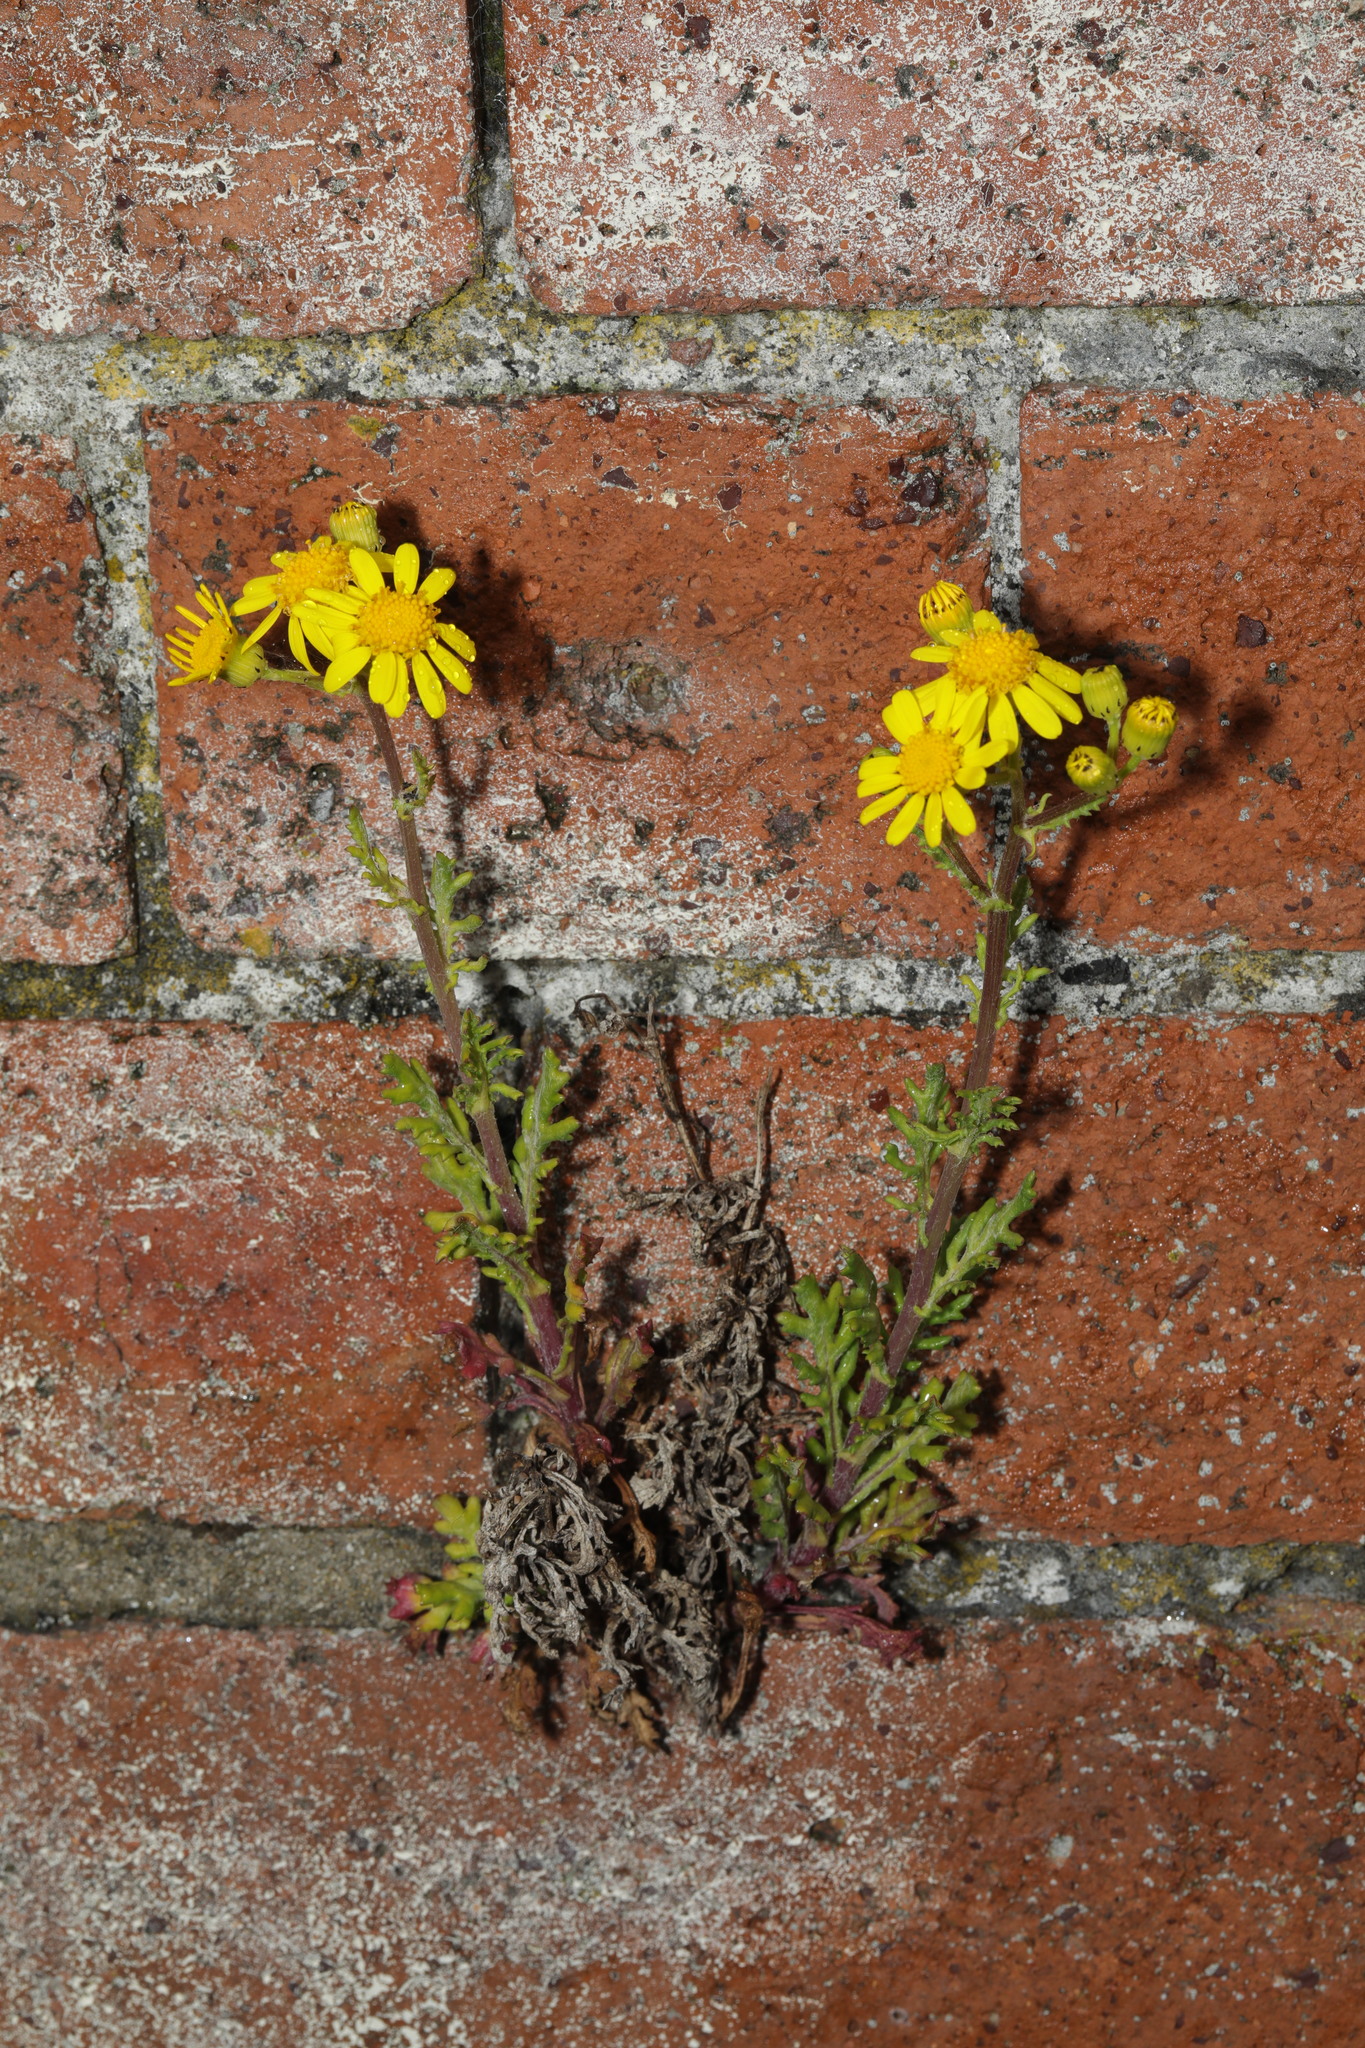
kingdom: Plantae
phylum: Tracheophyta
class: Magnoliopsida
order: Asterales
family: Asteraceae
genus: Senecio
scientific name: Senecio squalidus
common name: Oxford ragwort
